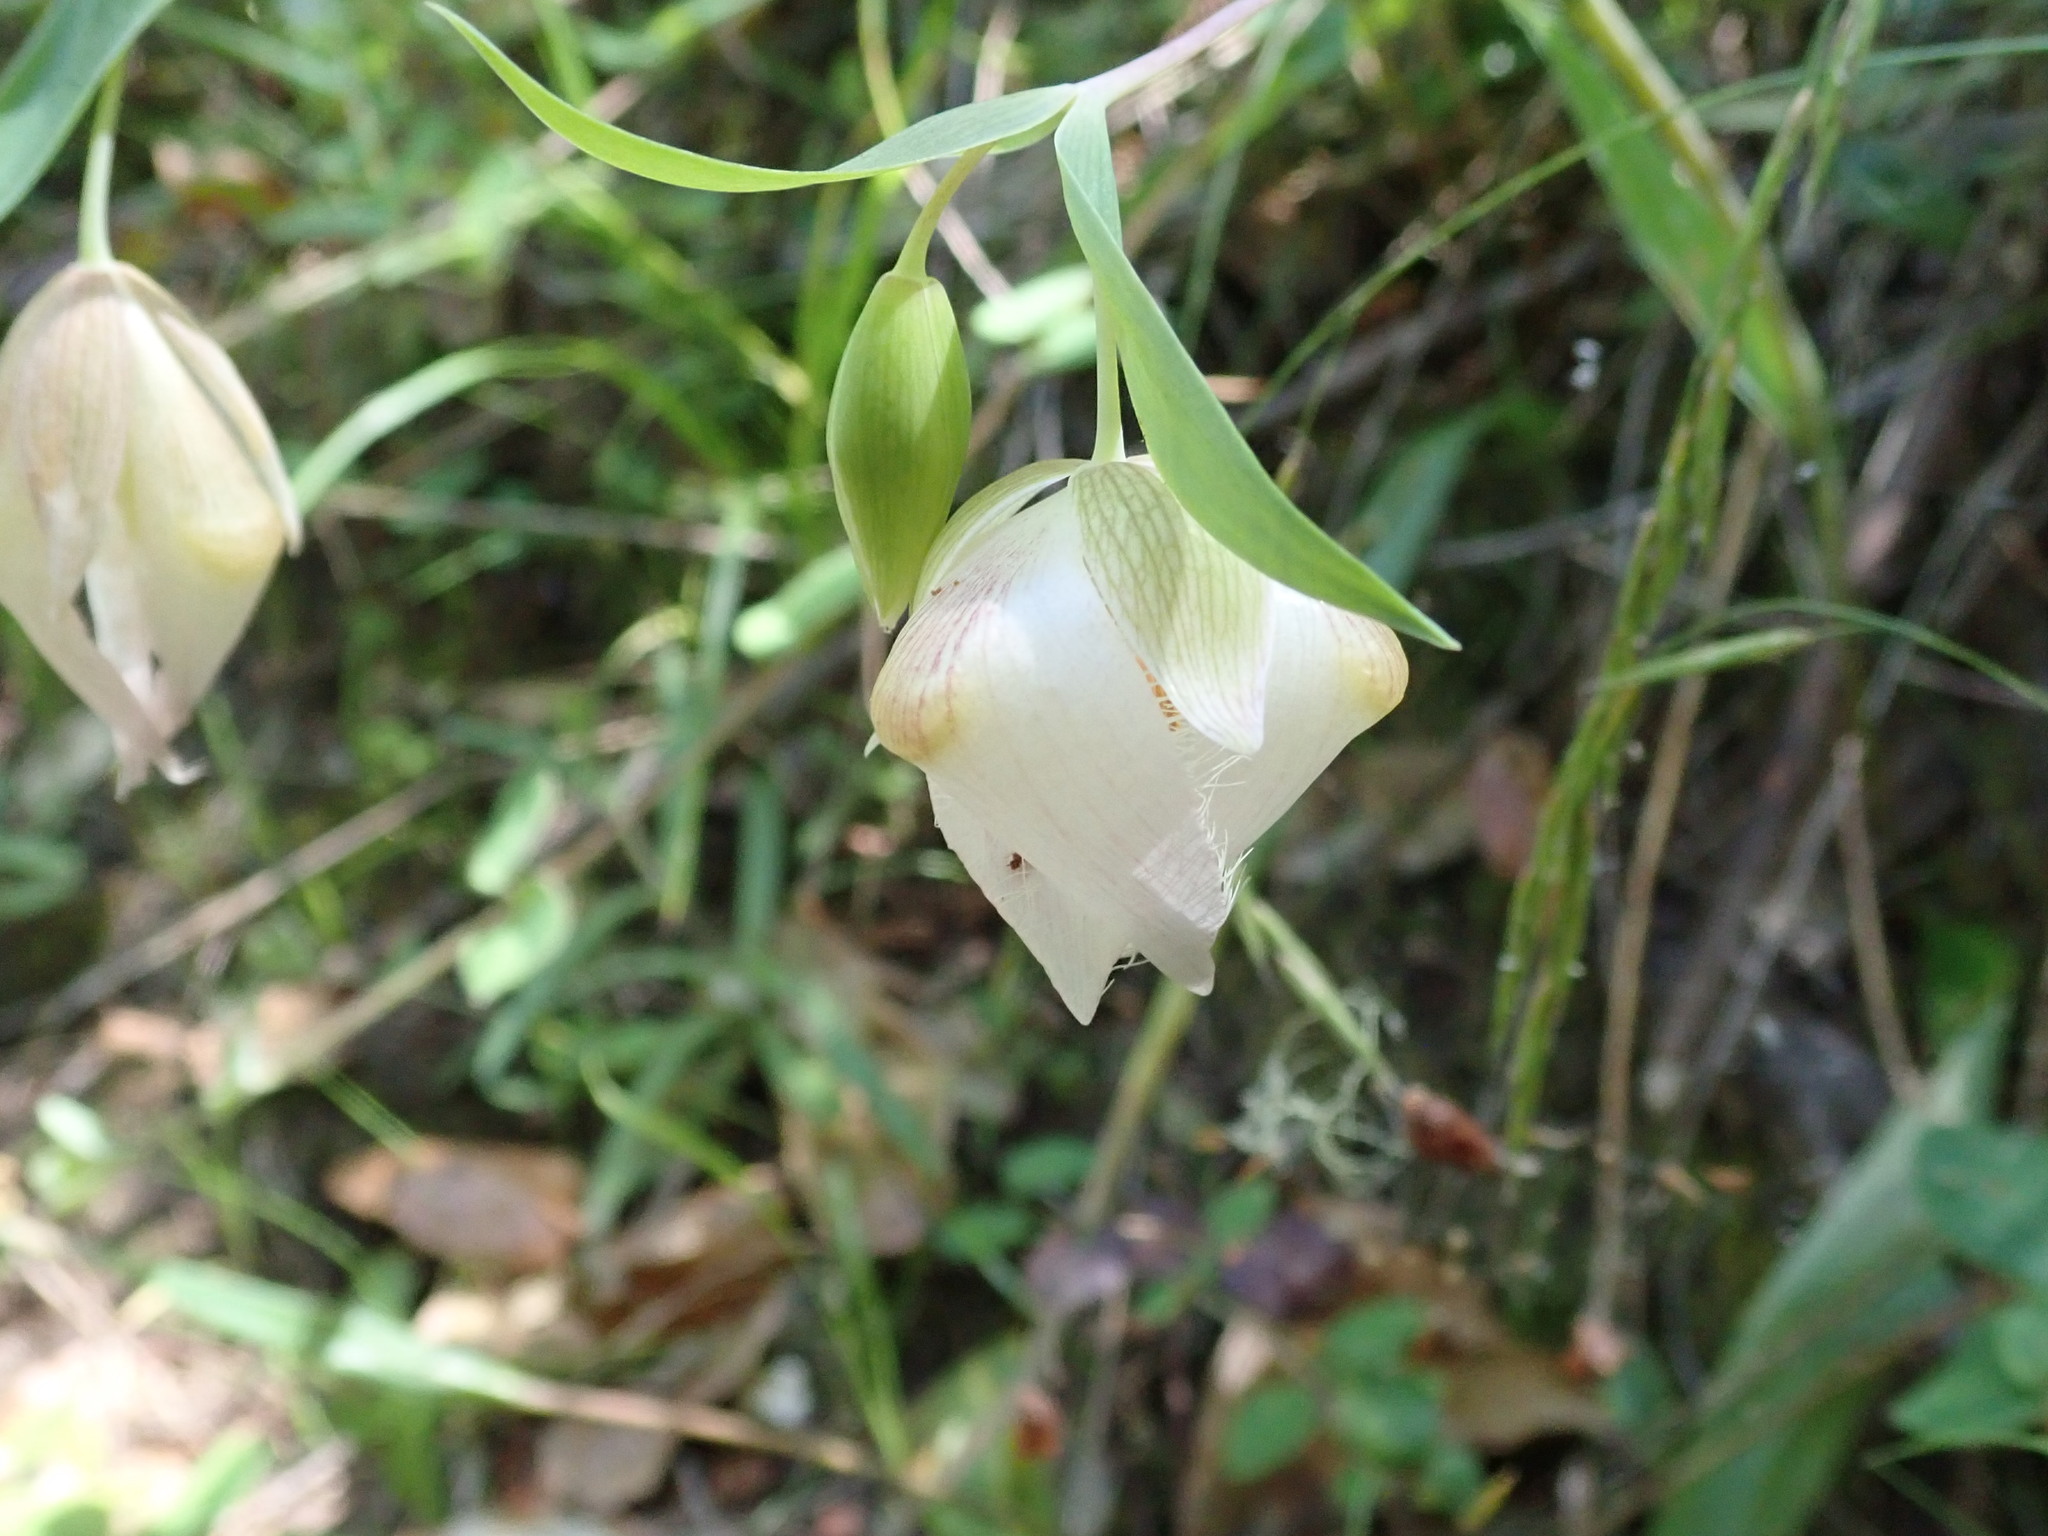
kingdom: Plantae
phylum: Tracheophyta
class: Liliopsida
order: Liliales
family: Liliaceae
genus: Calochortus
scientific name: Calochortus albus
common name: Fairy-lantern
